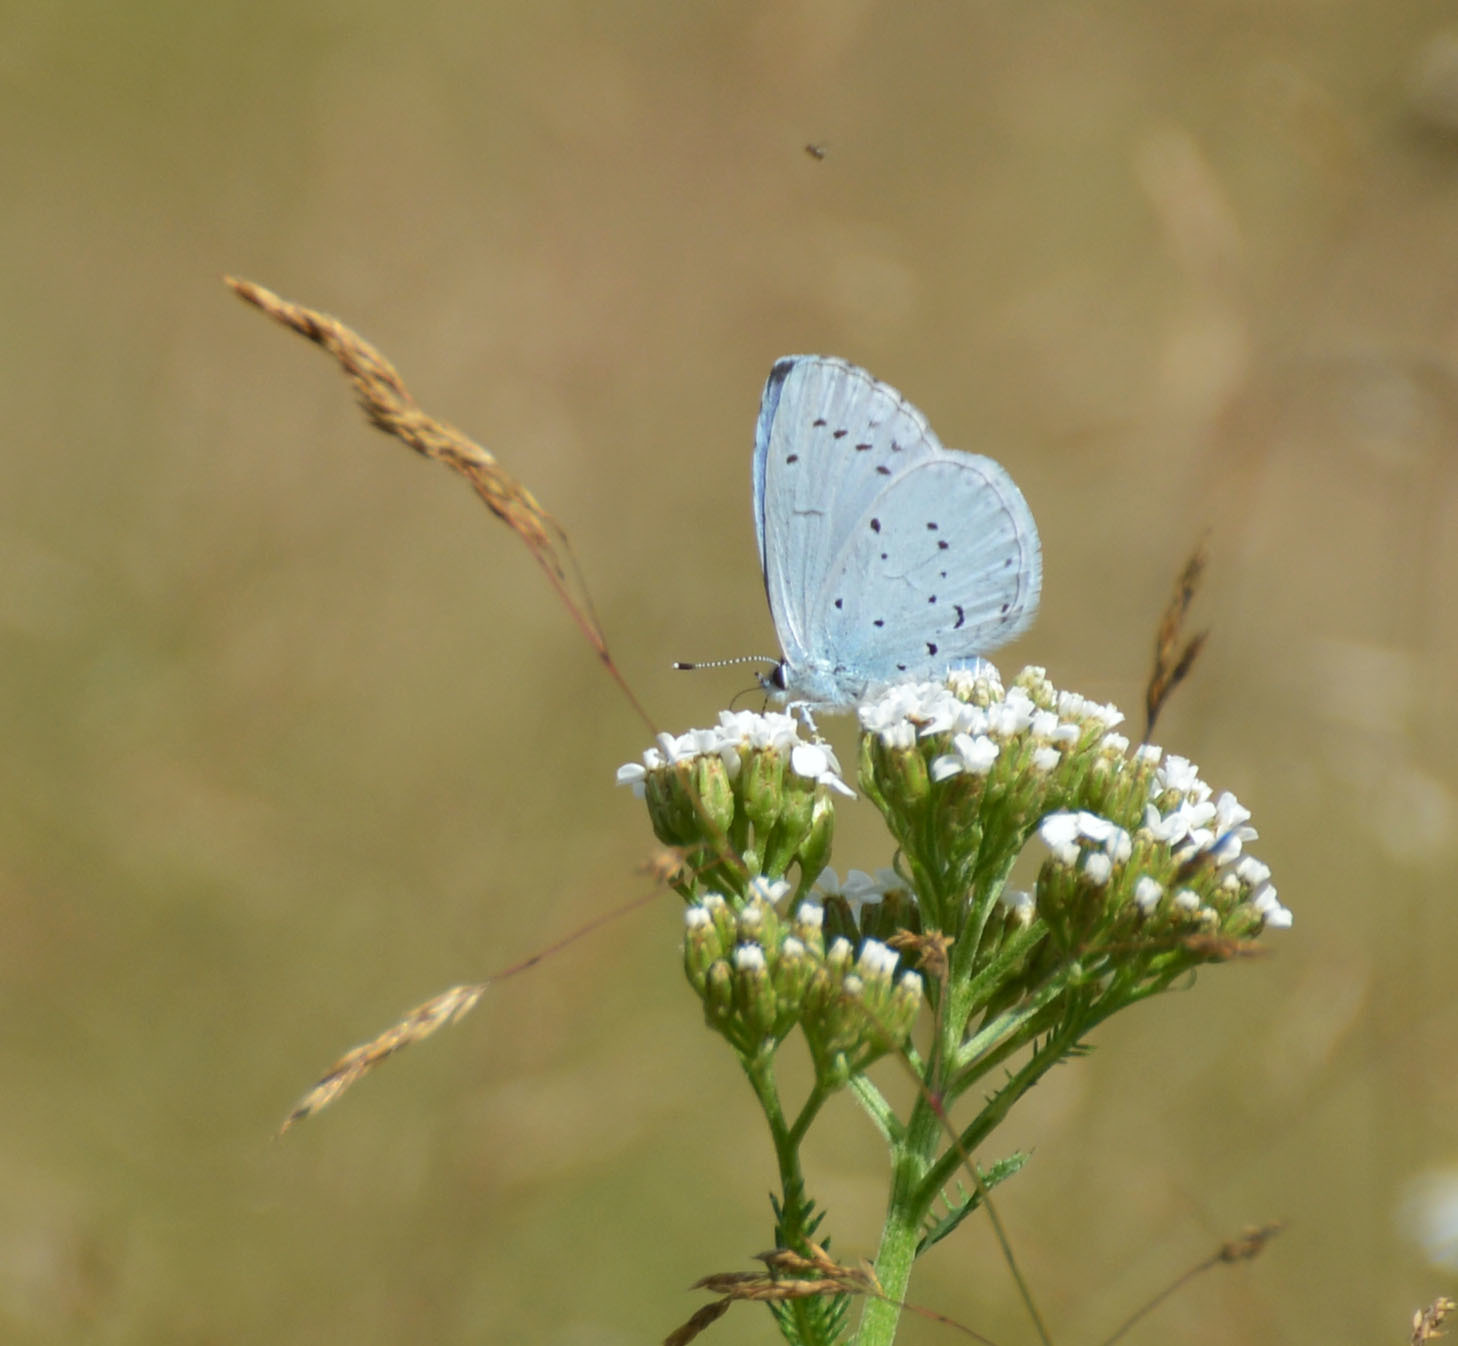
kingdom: Animalia
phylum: Arthropoda
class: Insecta
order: Lepidoptera
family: Lycaenidae
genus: Celastrina
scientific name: Celastrina argiolus
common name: Holly blue
